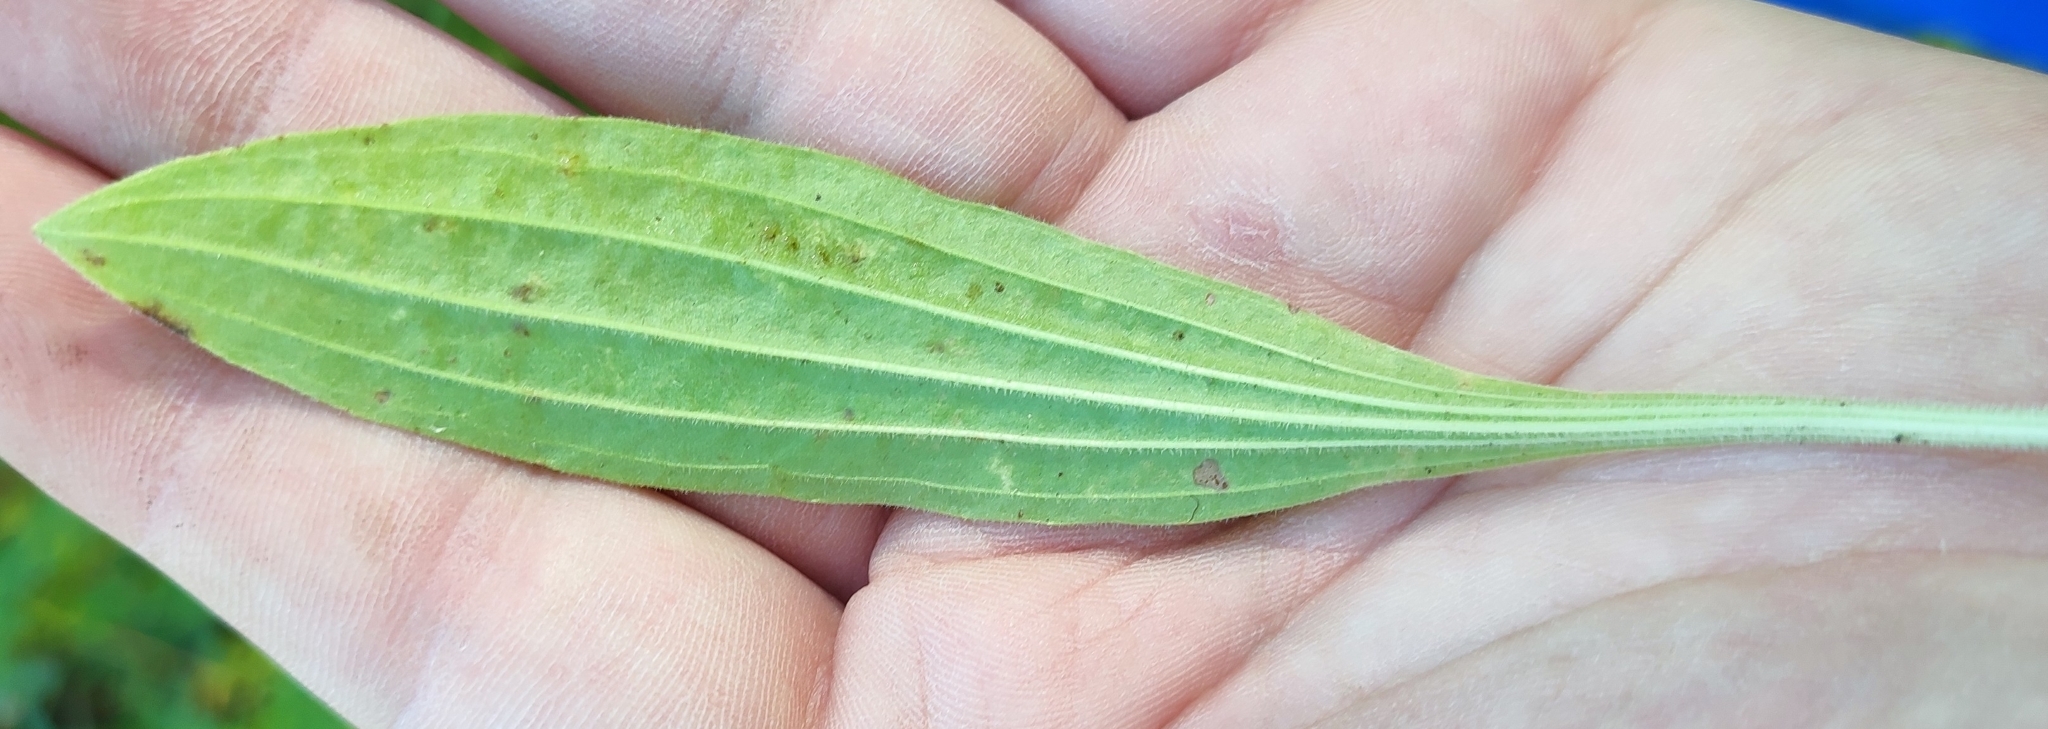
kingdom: Plantae
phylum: Tracheophyta
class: Magnoliopsida
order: Lamiales
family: Plantaginaceae
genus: Plantago
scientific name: Plantago urvillei
